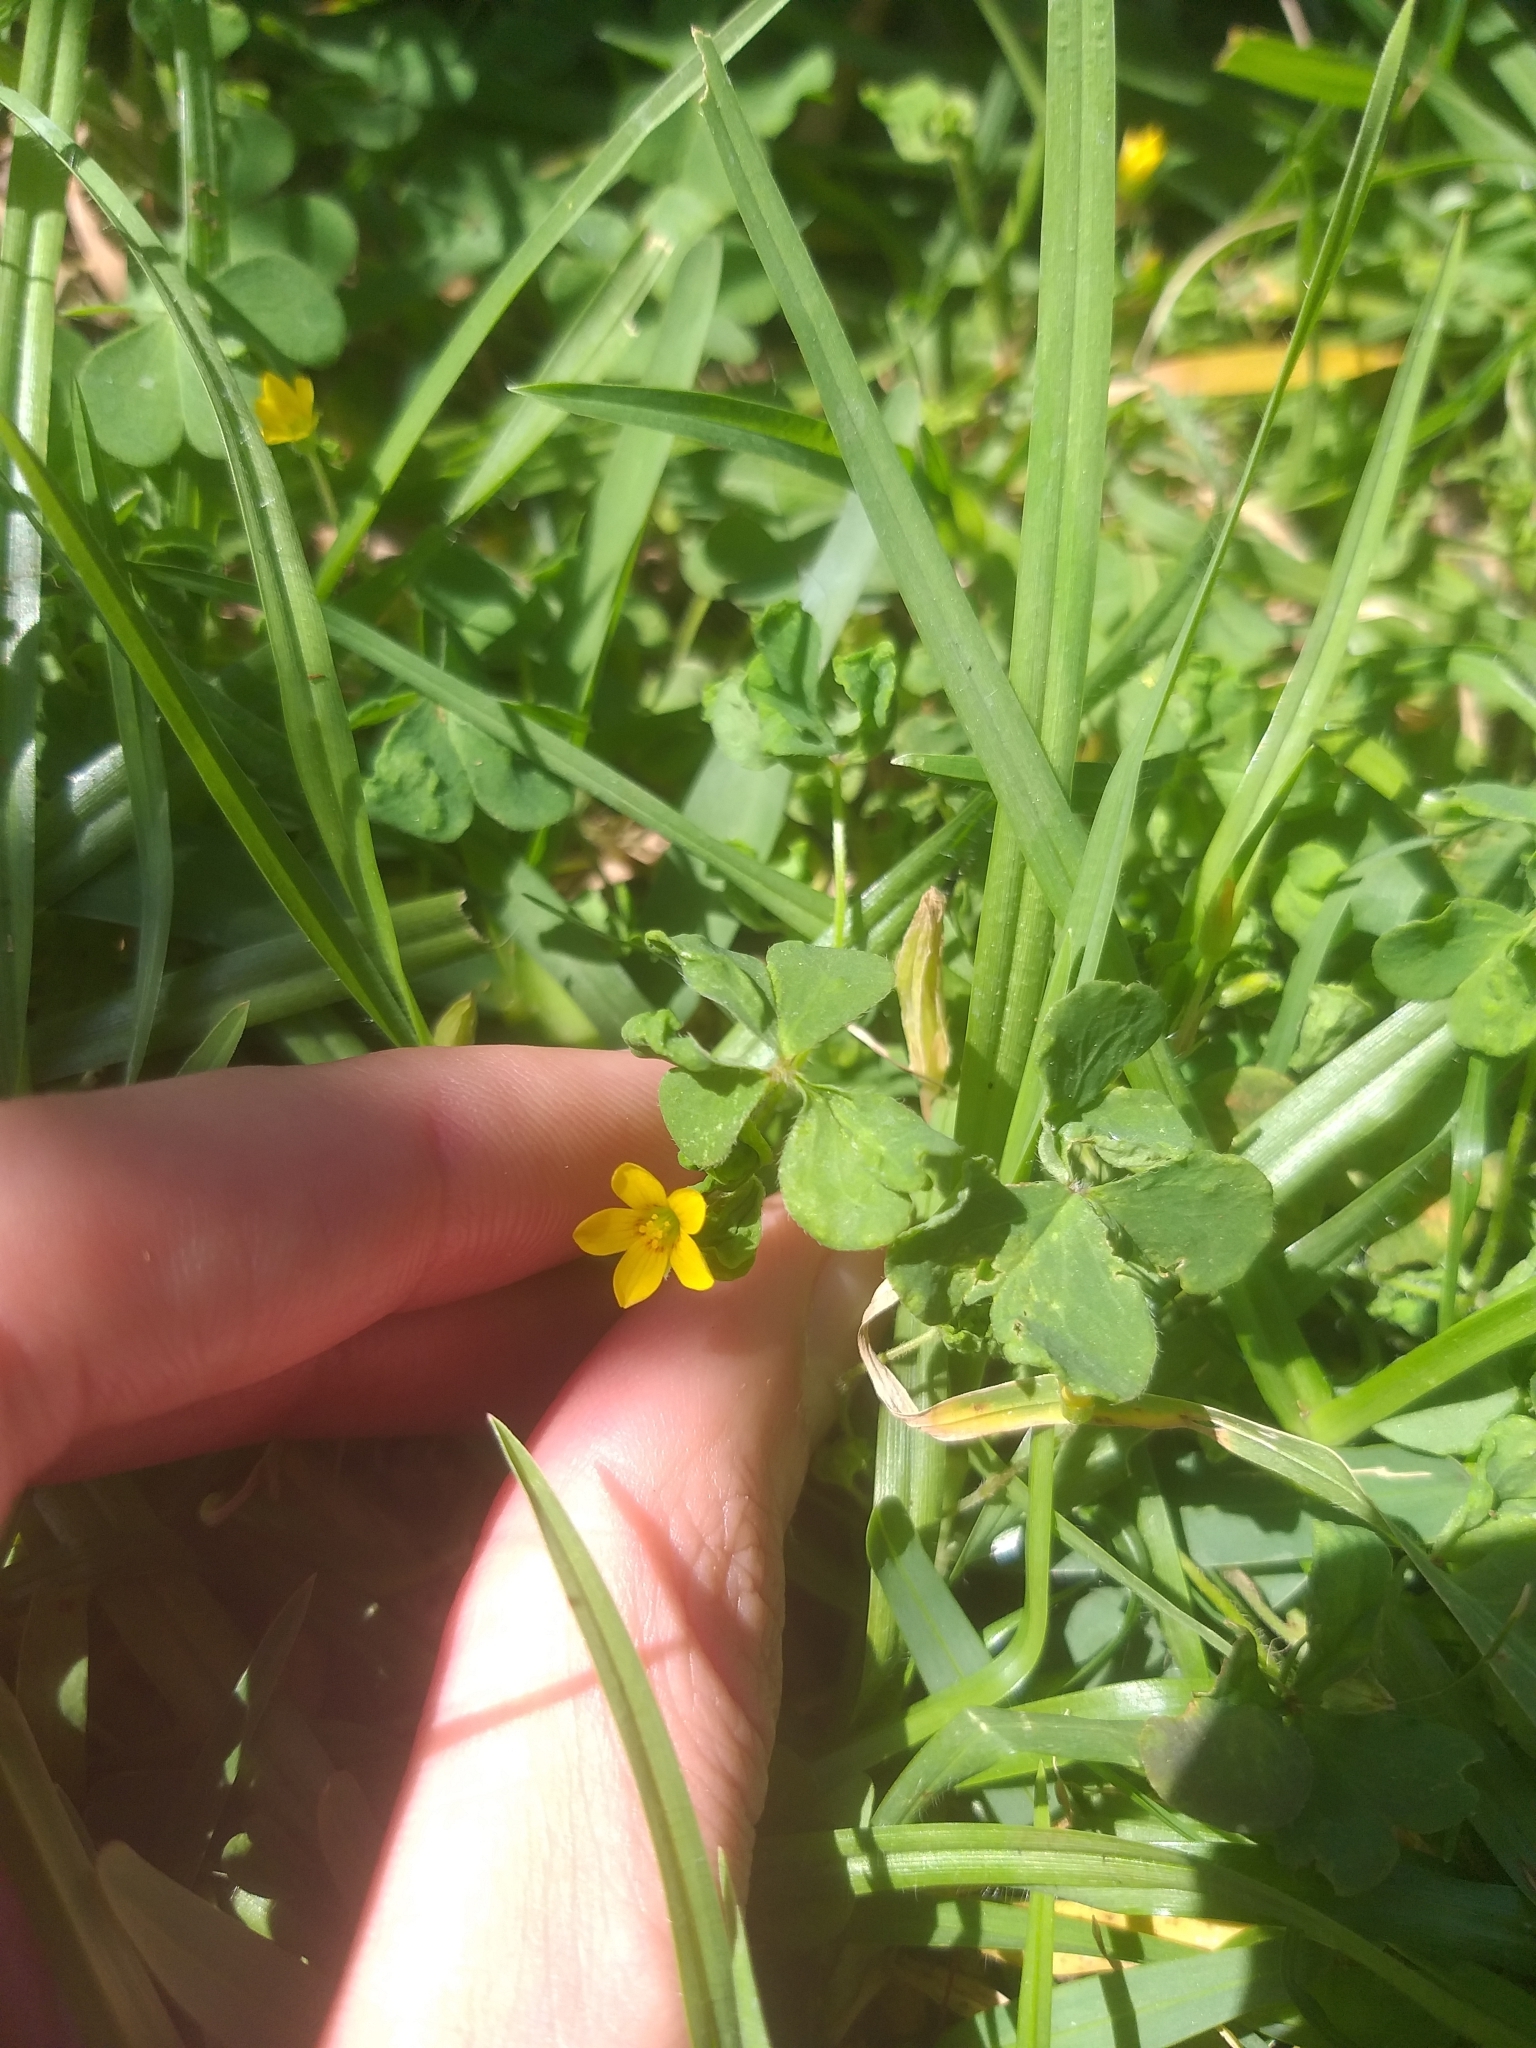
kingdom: Plantae
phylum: Tracheophyta
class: Magnoliopsida
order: Oxalidales
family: Oxalidaceae
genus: Oxalis
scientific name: Oxalis corniculata
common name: Procumbent yellow-sorrel
